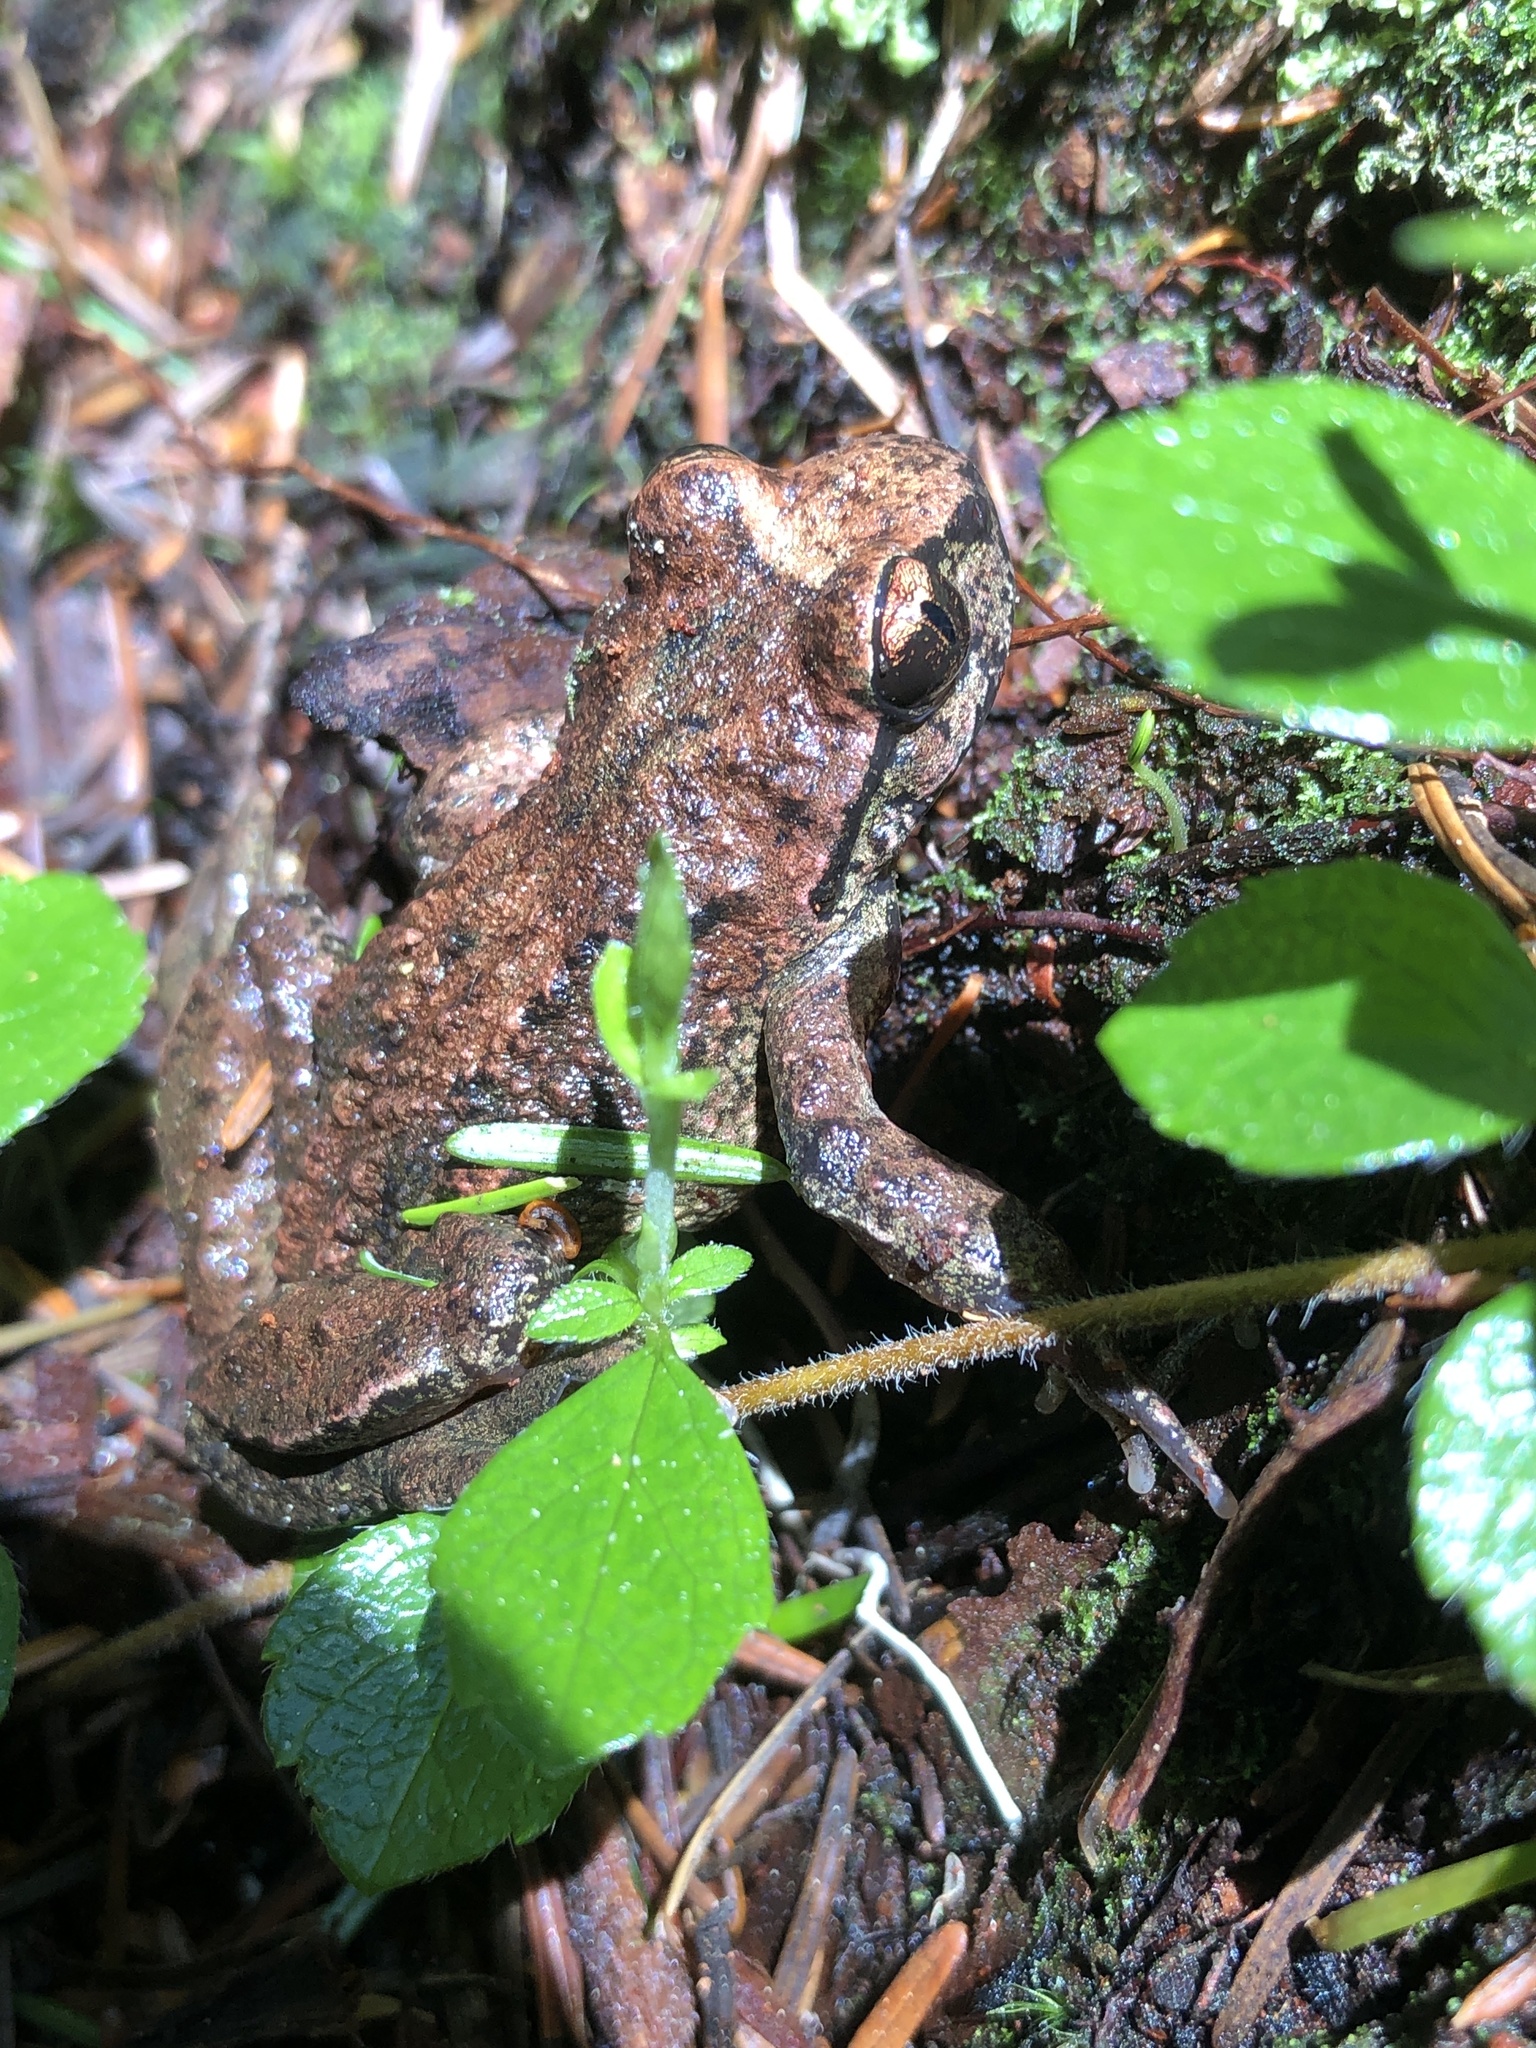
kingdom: Animalia
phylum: Chordata
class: Amphibia
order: Anura
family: Ascaphidae
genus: Ascaphus
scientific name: Ascaphus truei
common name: Tailed frog
